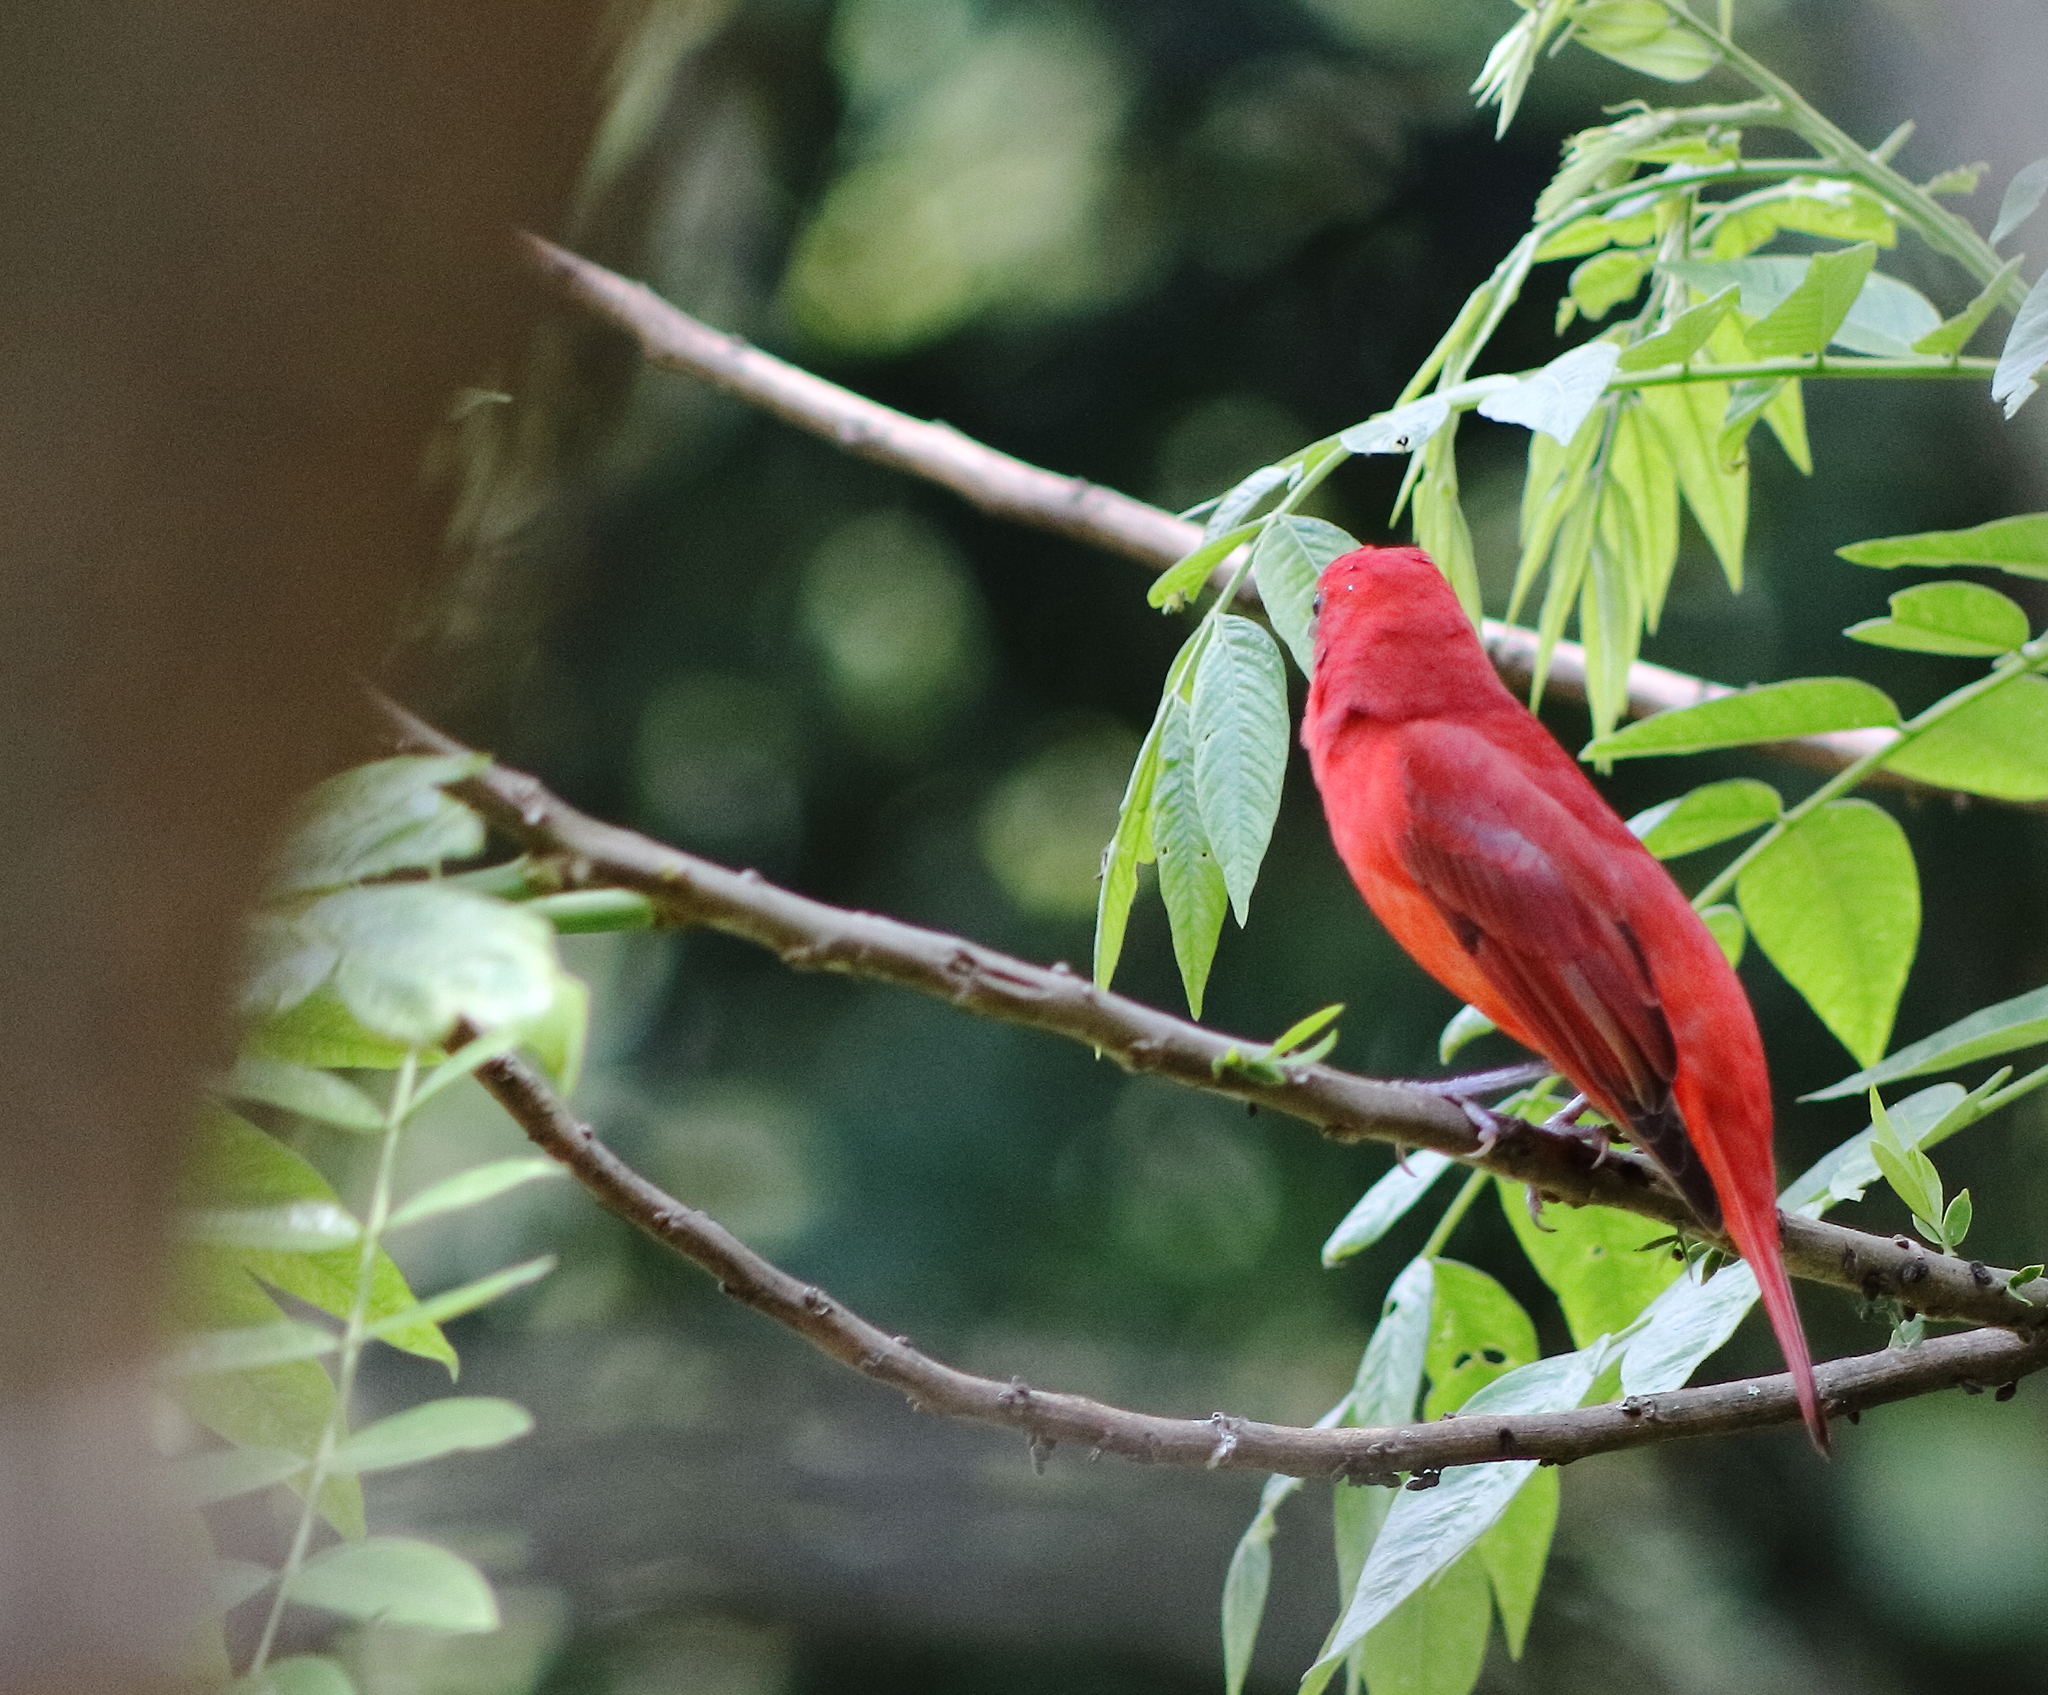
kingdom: Animalia
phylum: Chordata
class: Aves
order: Passeriformes
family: Cardinalidae
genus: Piranga
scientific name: Piranga rubra
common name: Summer tanager
